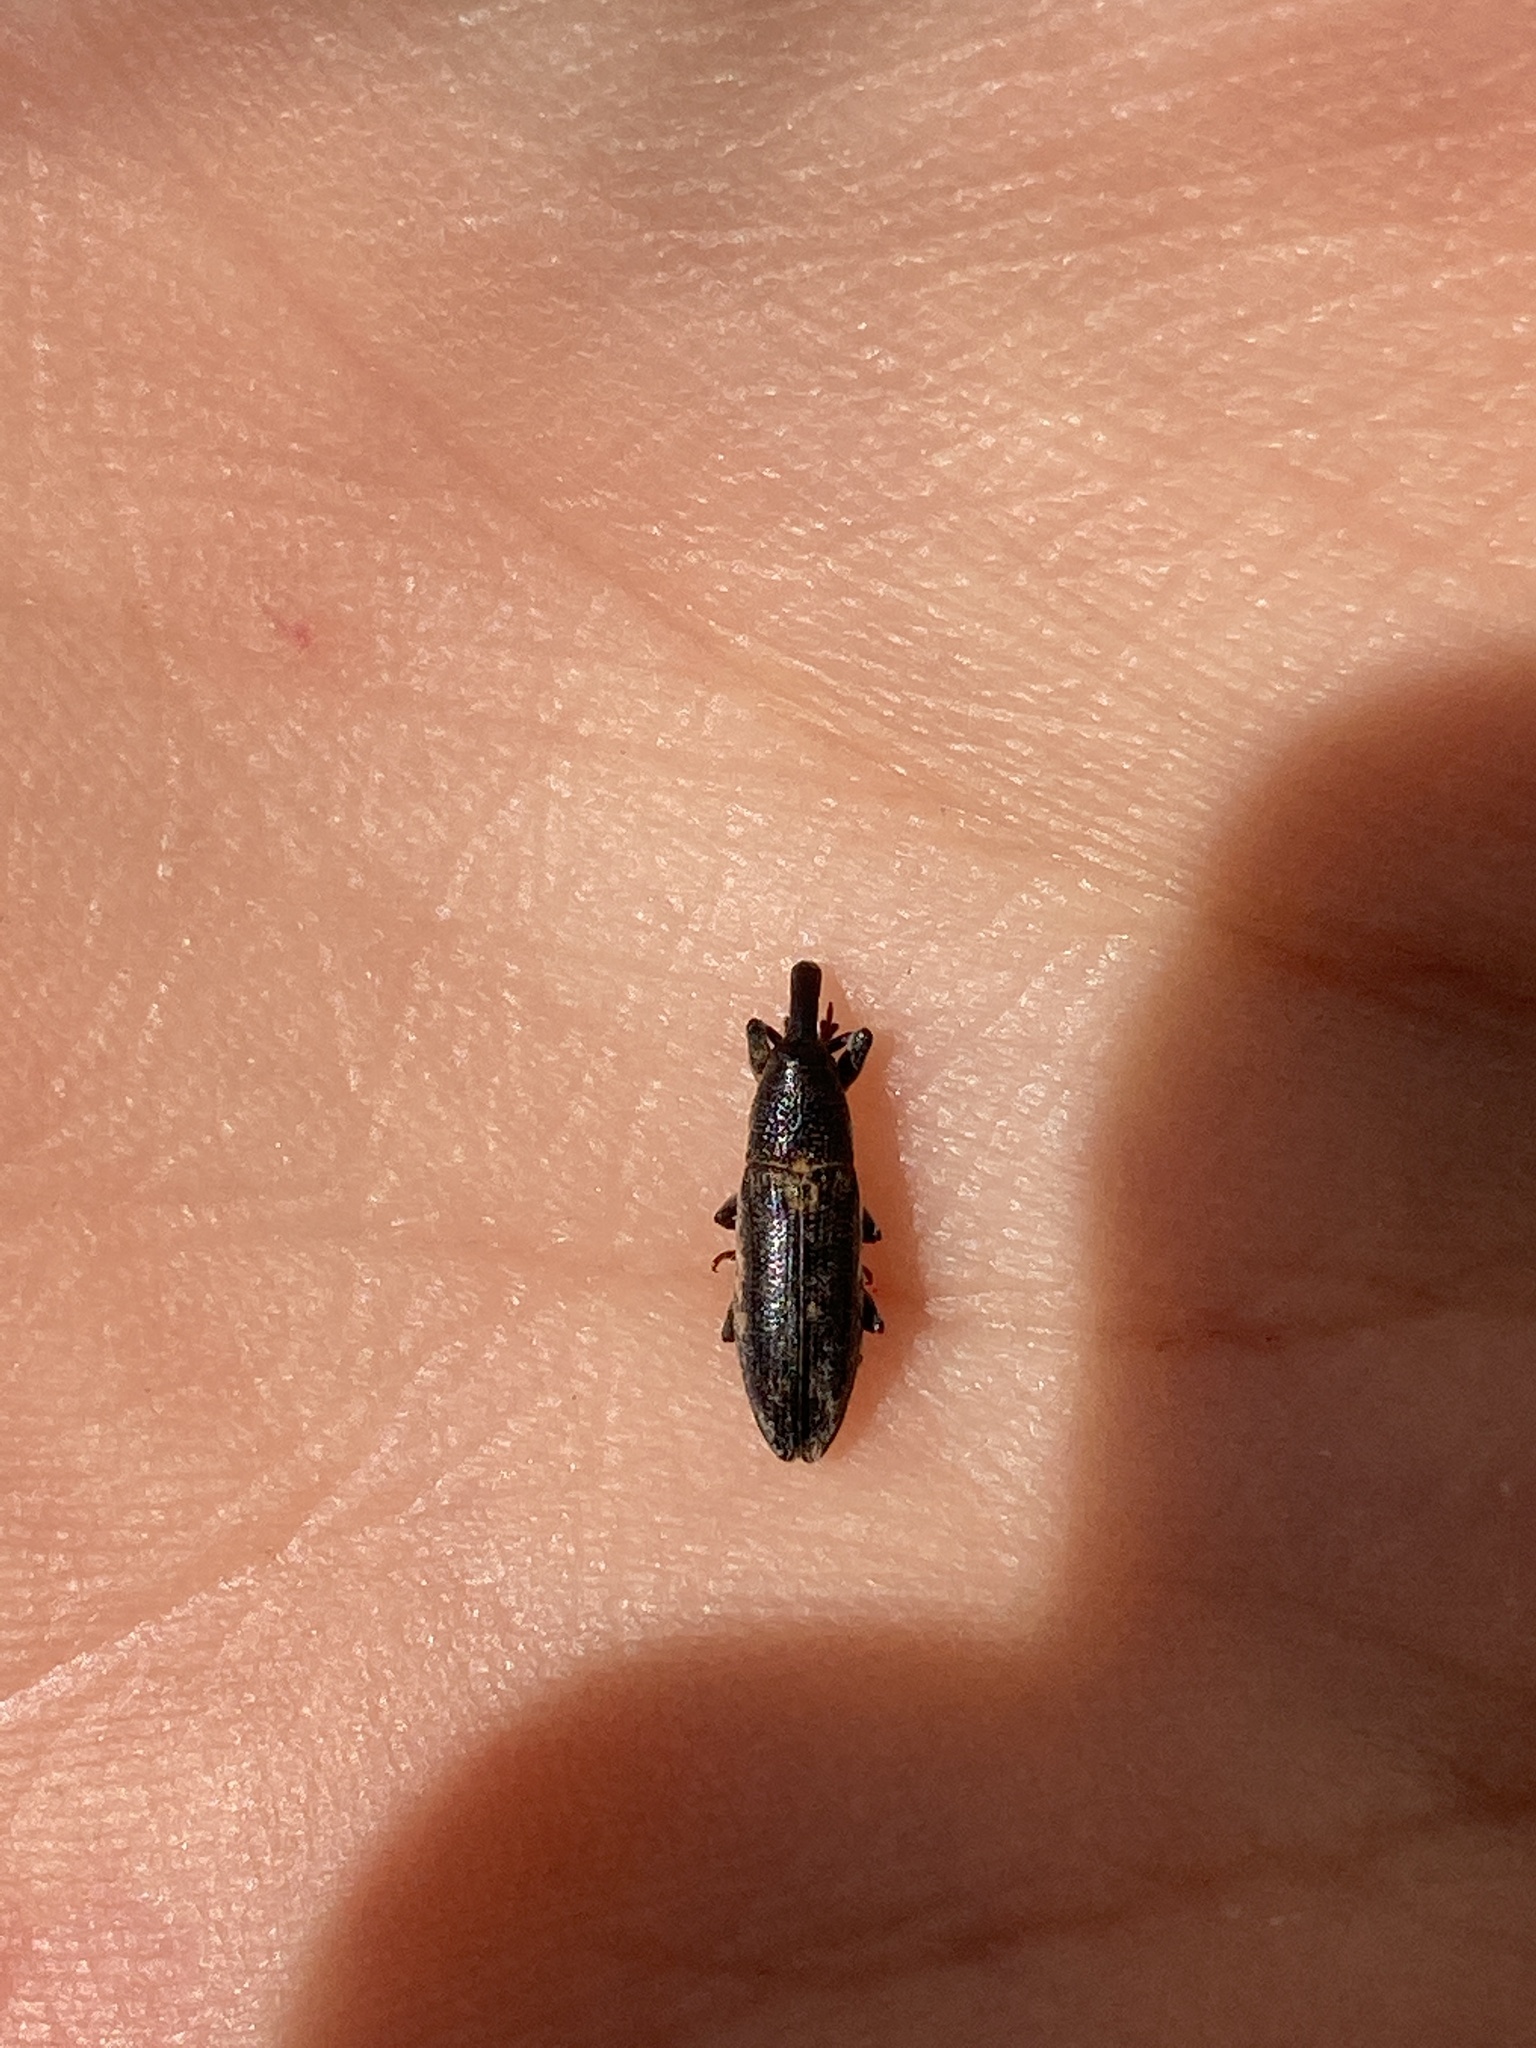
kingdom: Animalia
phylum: Arthropoda
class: Insecta
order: Coleoptera
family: Curculionidae
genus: Lixus
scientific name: Lixus subtilis
